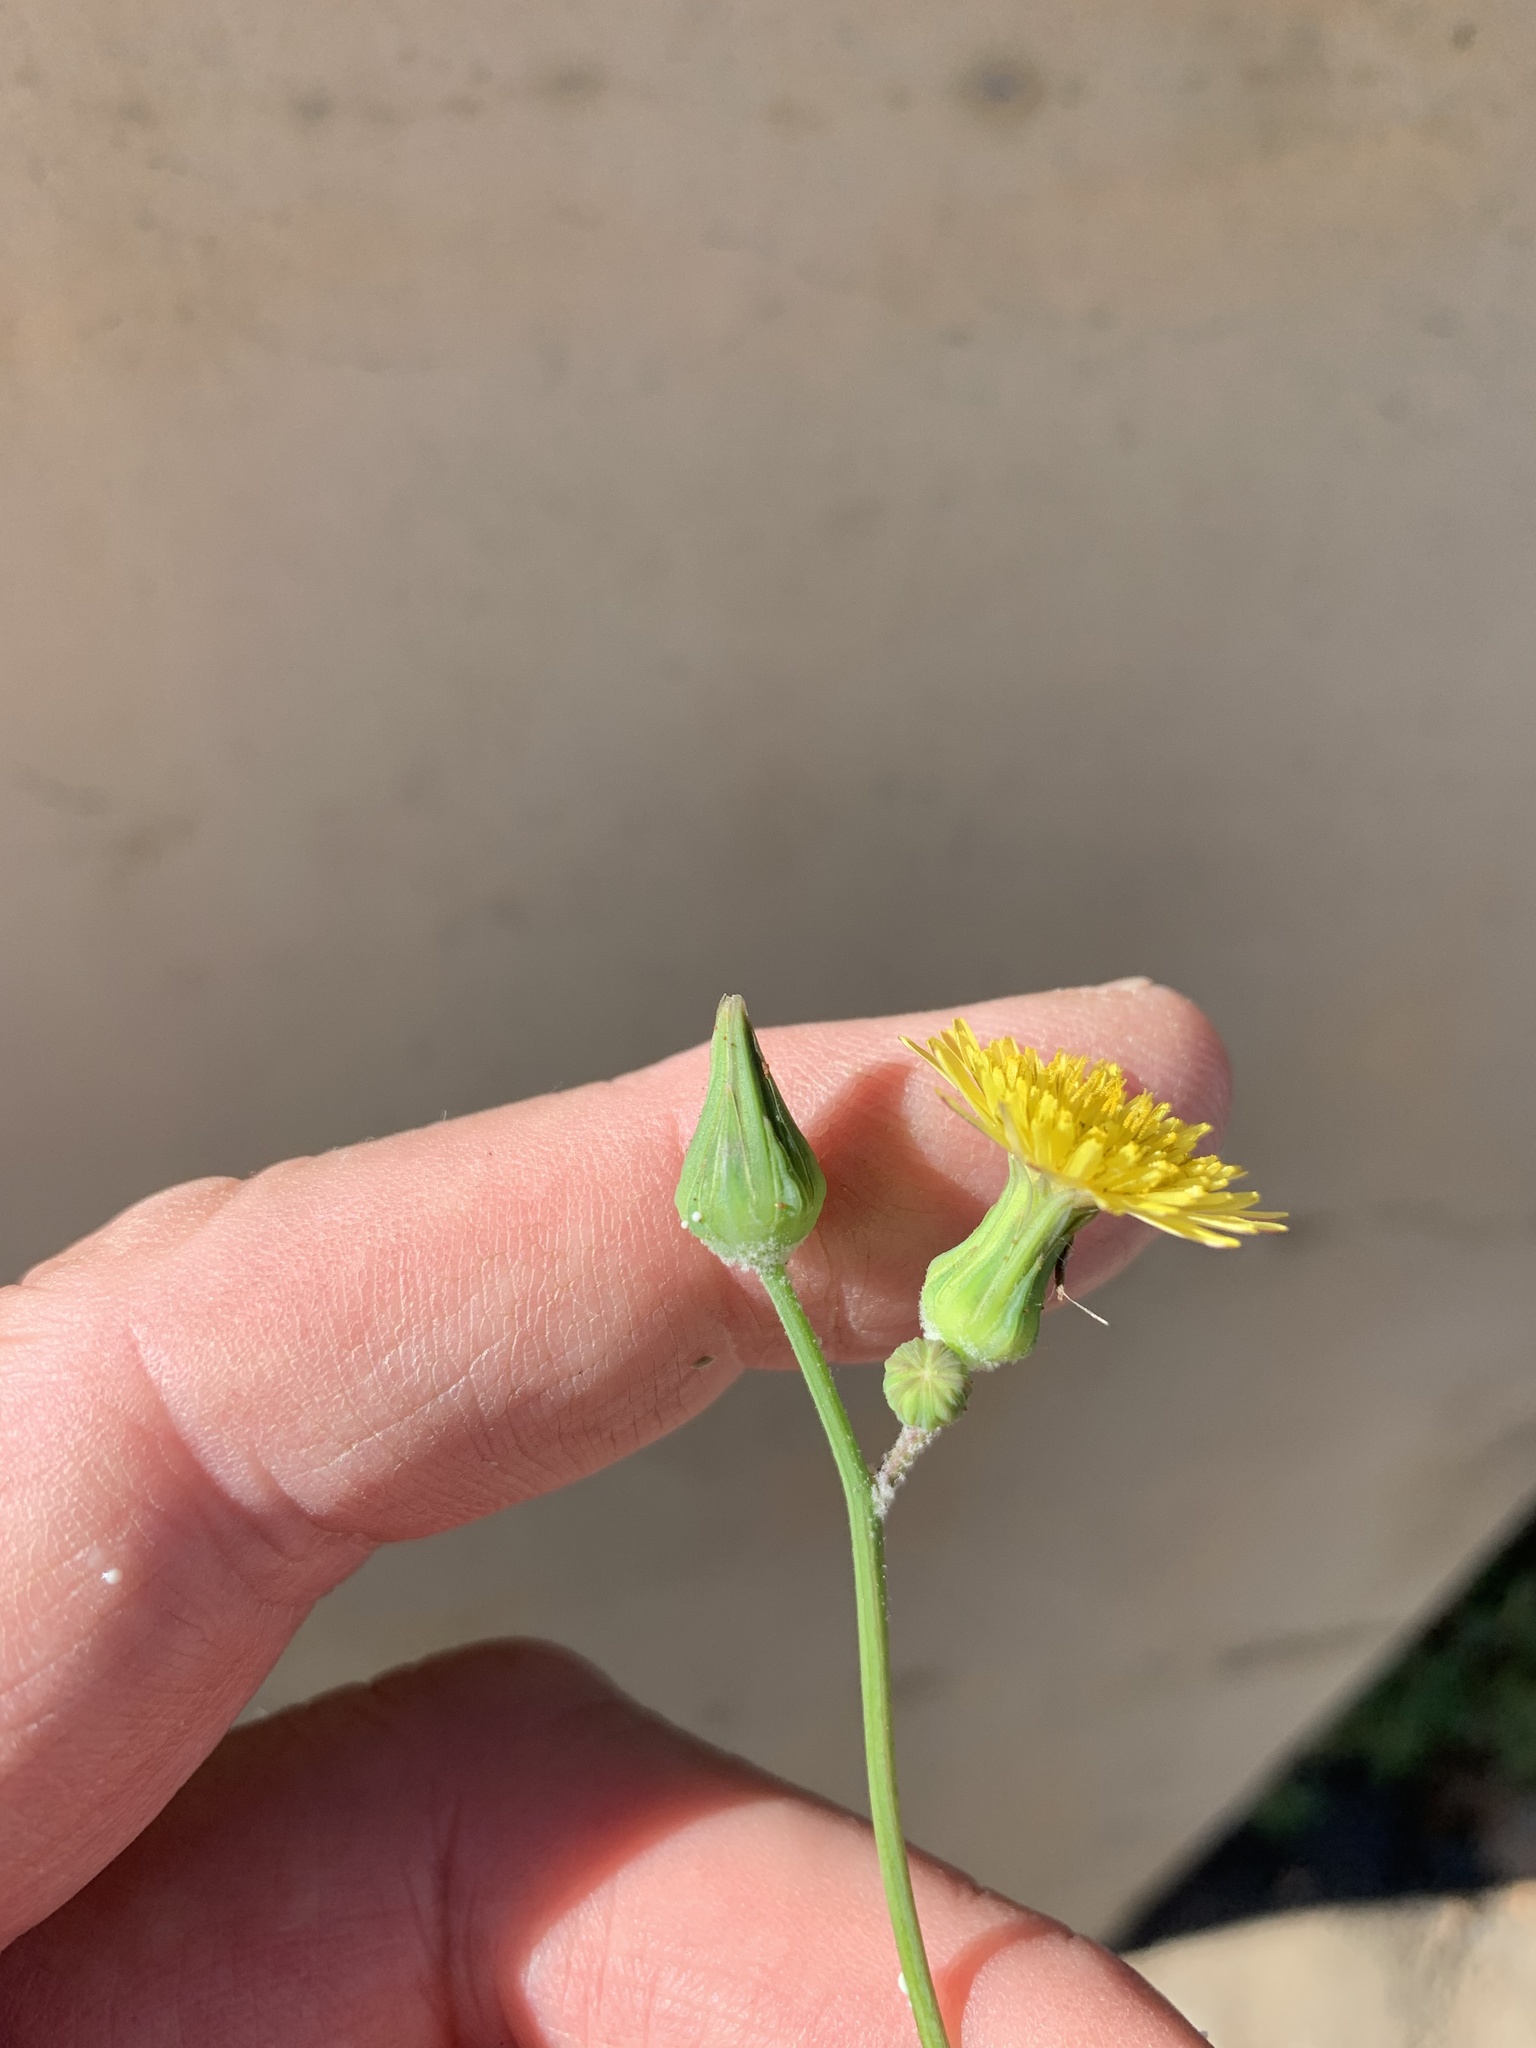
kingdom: Plantae
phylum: Tracheophyta
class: Magnoliopsida
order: Asterales
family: Asteraceae
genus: Sonchus
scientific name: Sonchus oleraceus
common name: Common sowthistle
